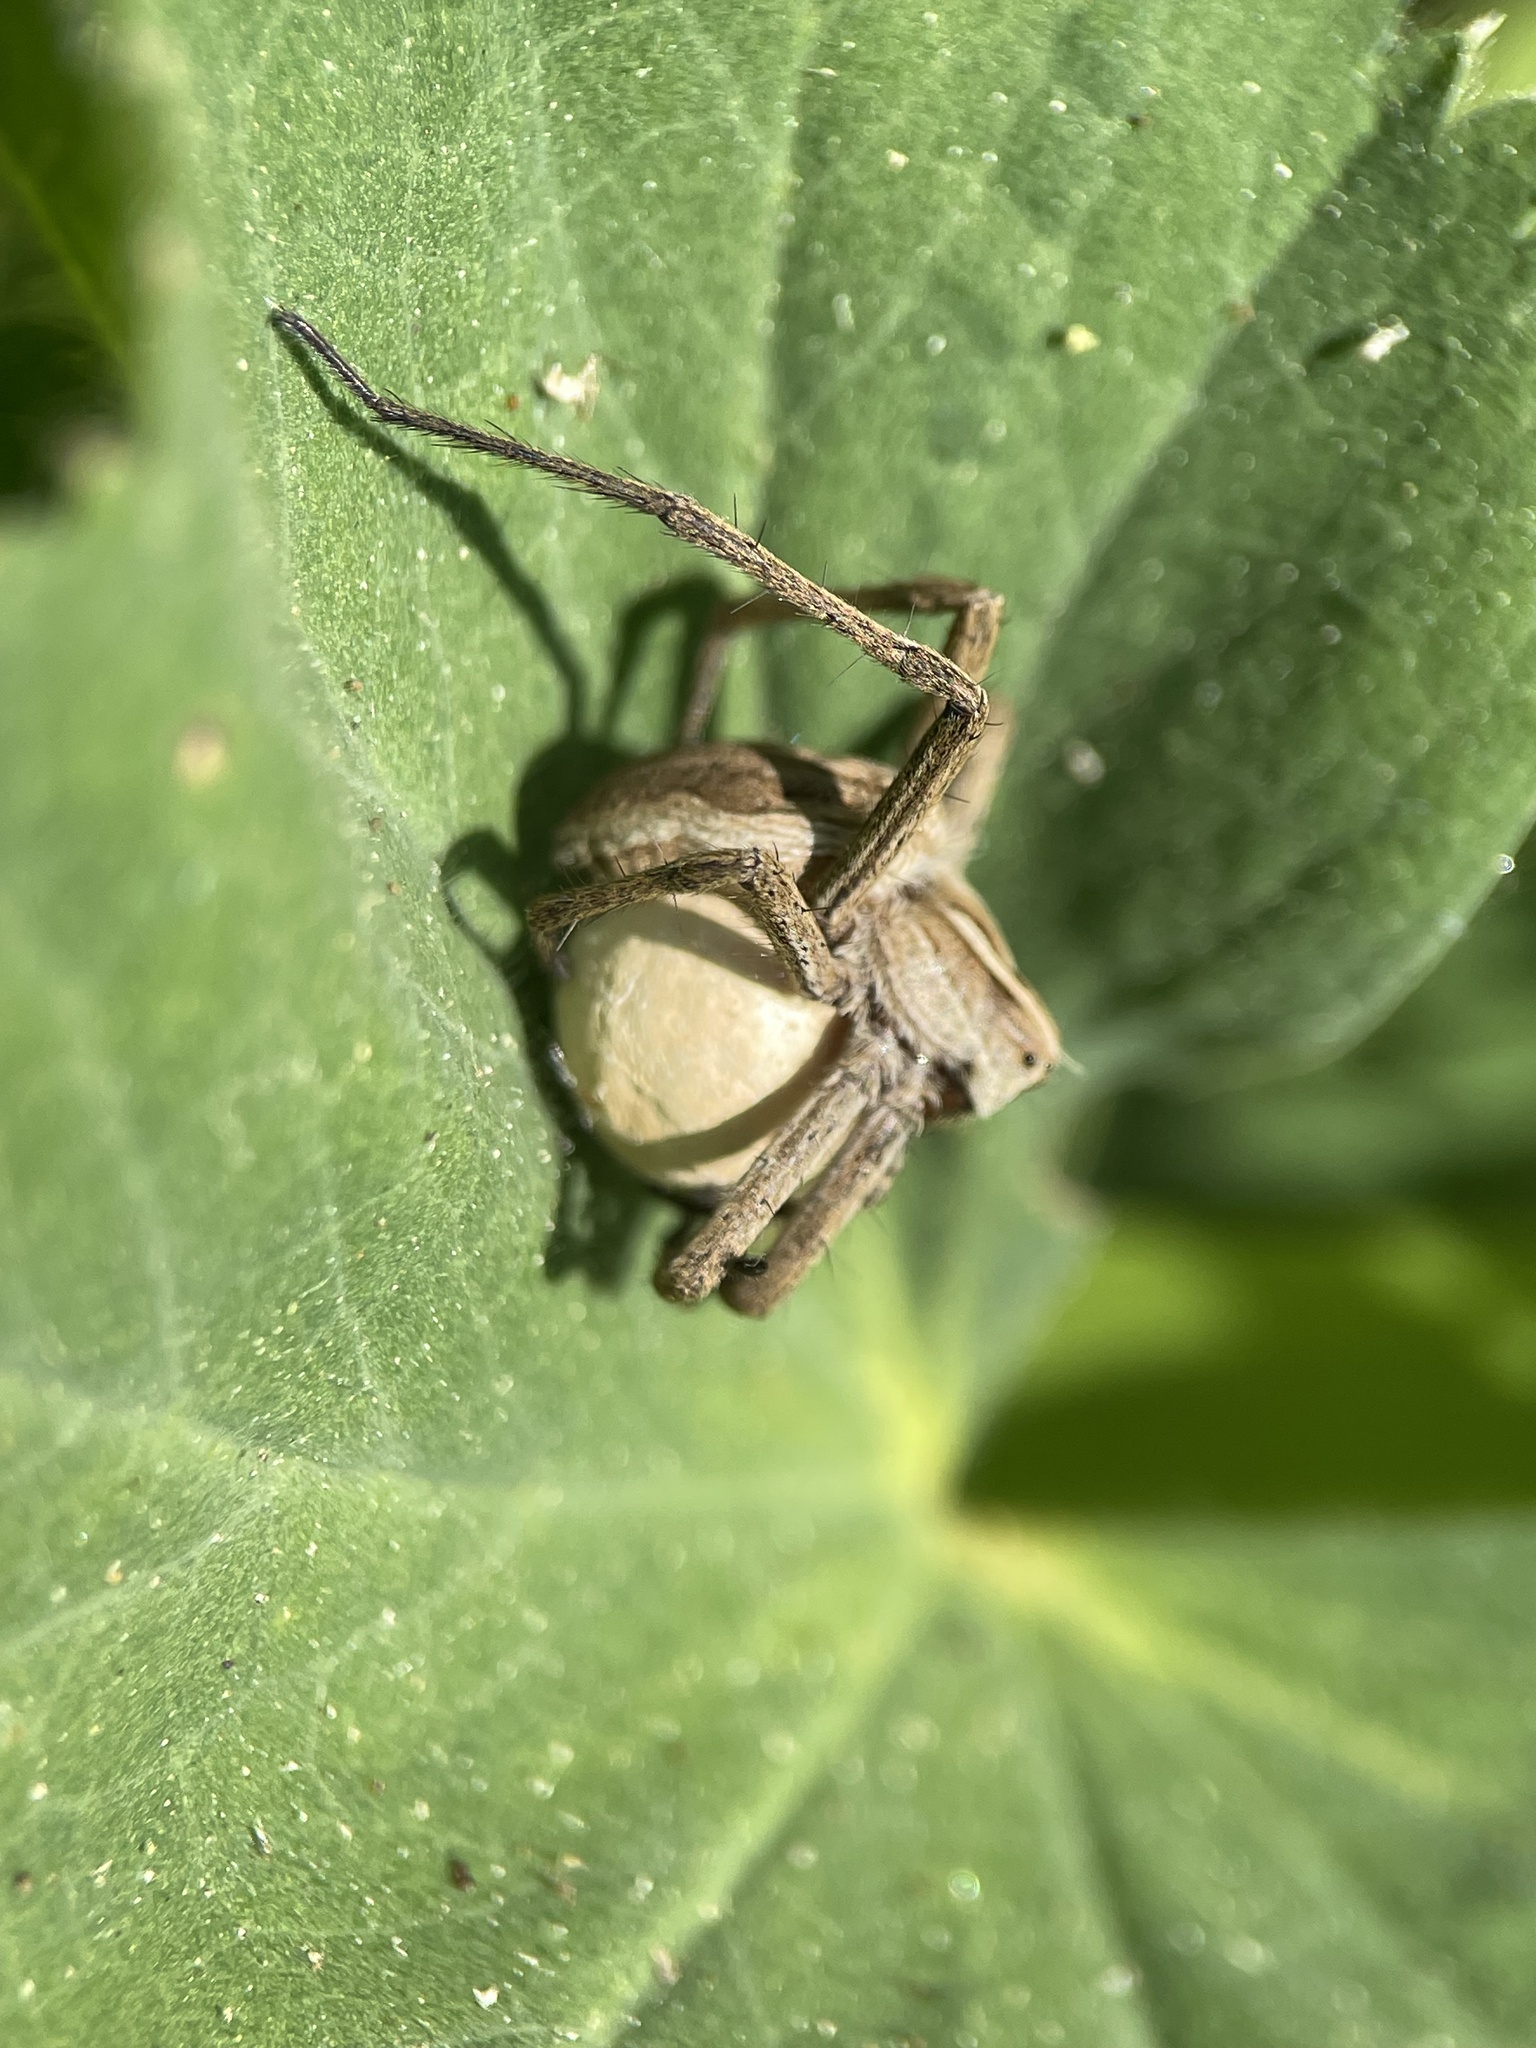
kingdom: Animalia
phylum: Arthropoda
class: Arachnida
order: Araneae
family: Pisauridae
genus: Pisaura
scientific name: Pisaura mirabilis
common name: Tent spider
